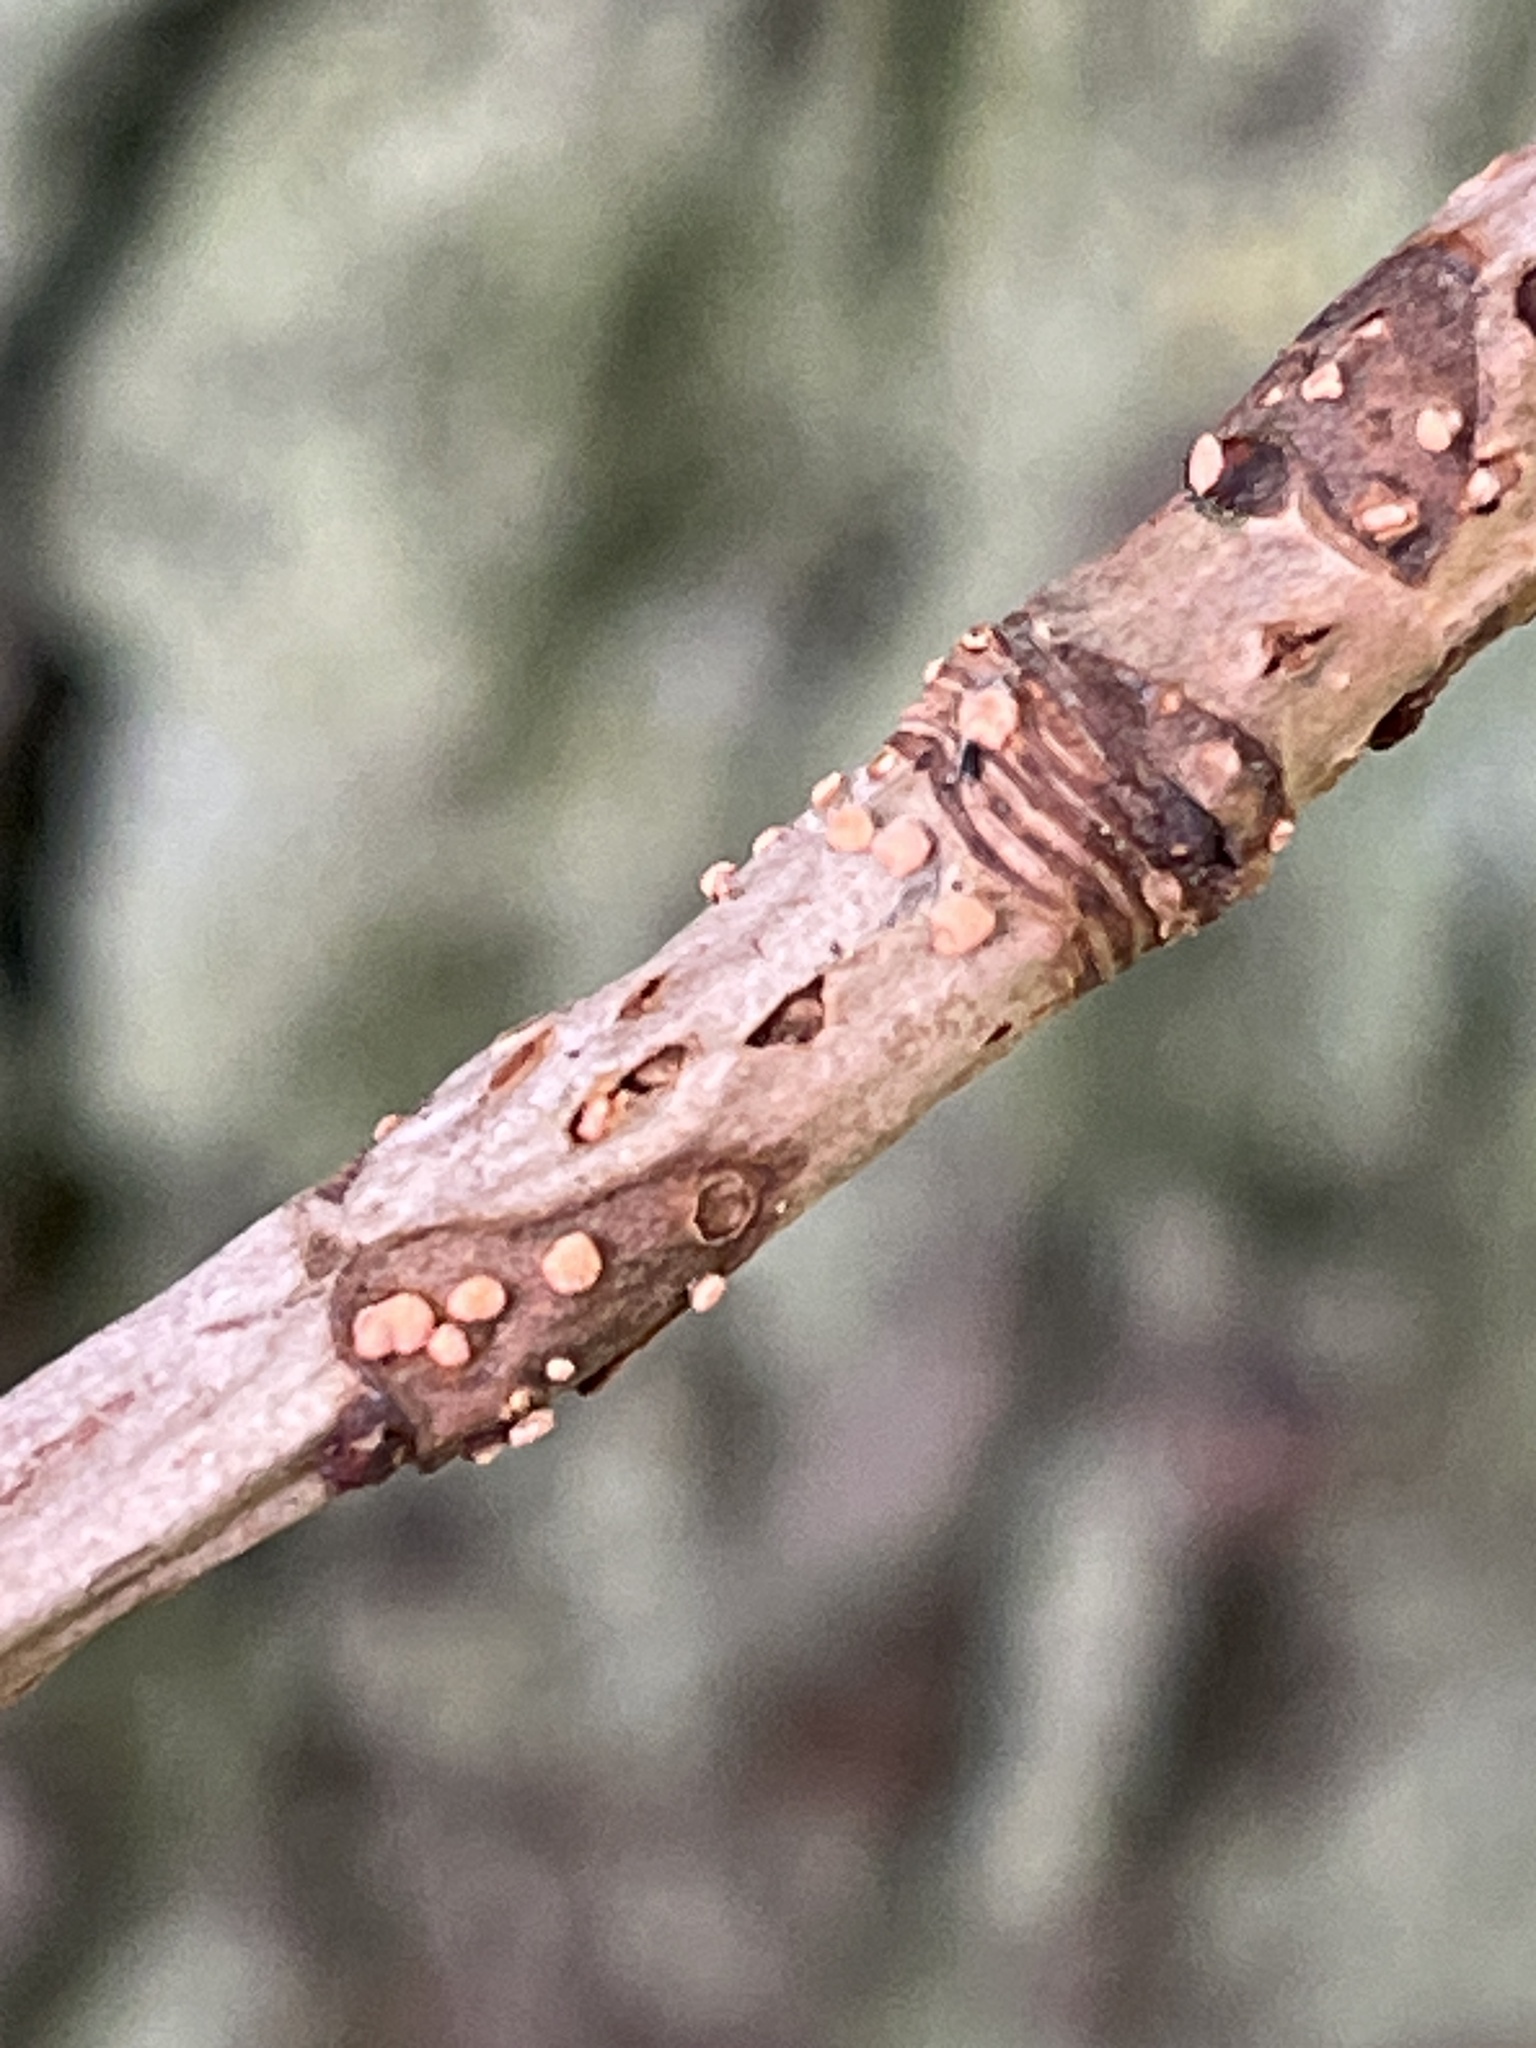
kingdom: Fungi
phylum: Ascomycota
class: Sordariomycetes
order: Hypocreales
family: Nectriaceae
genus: Nectria
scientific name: Nectria cinnabarina
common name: Coral spot
